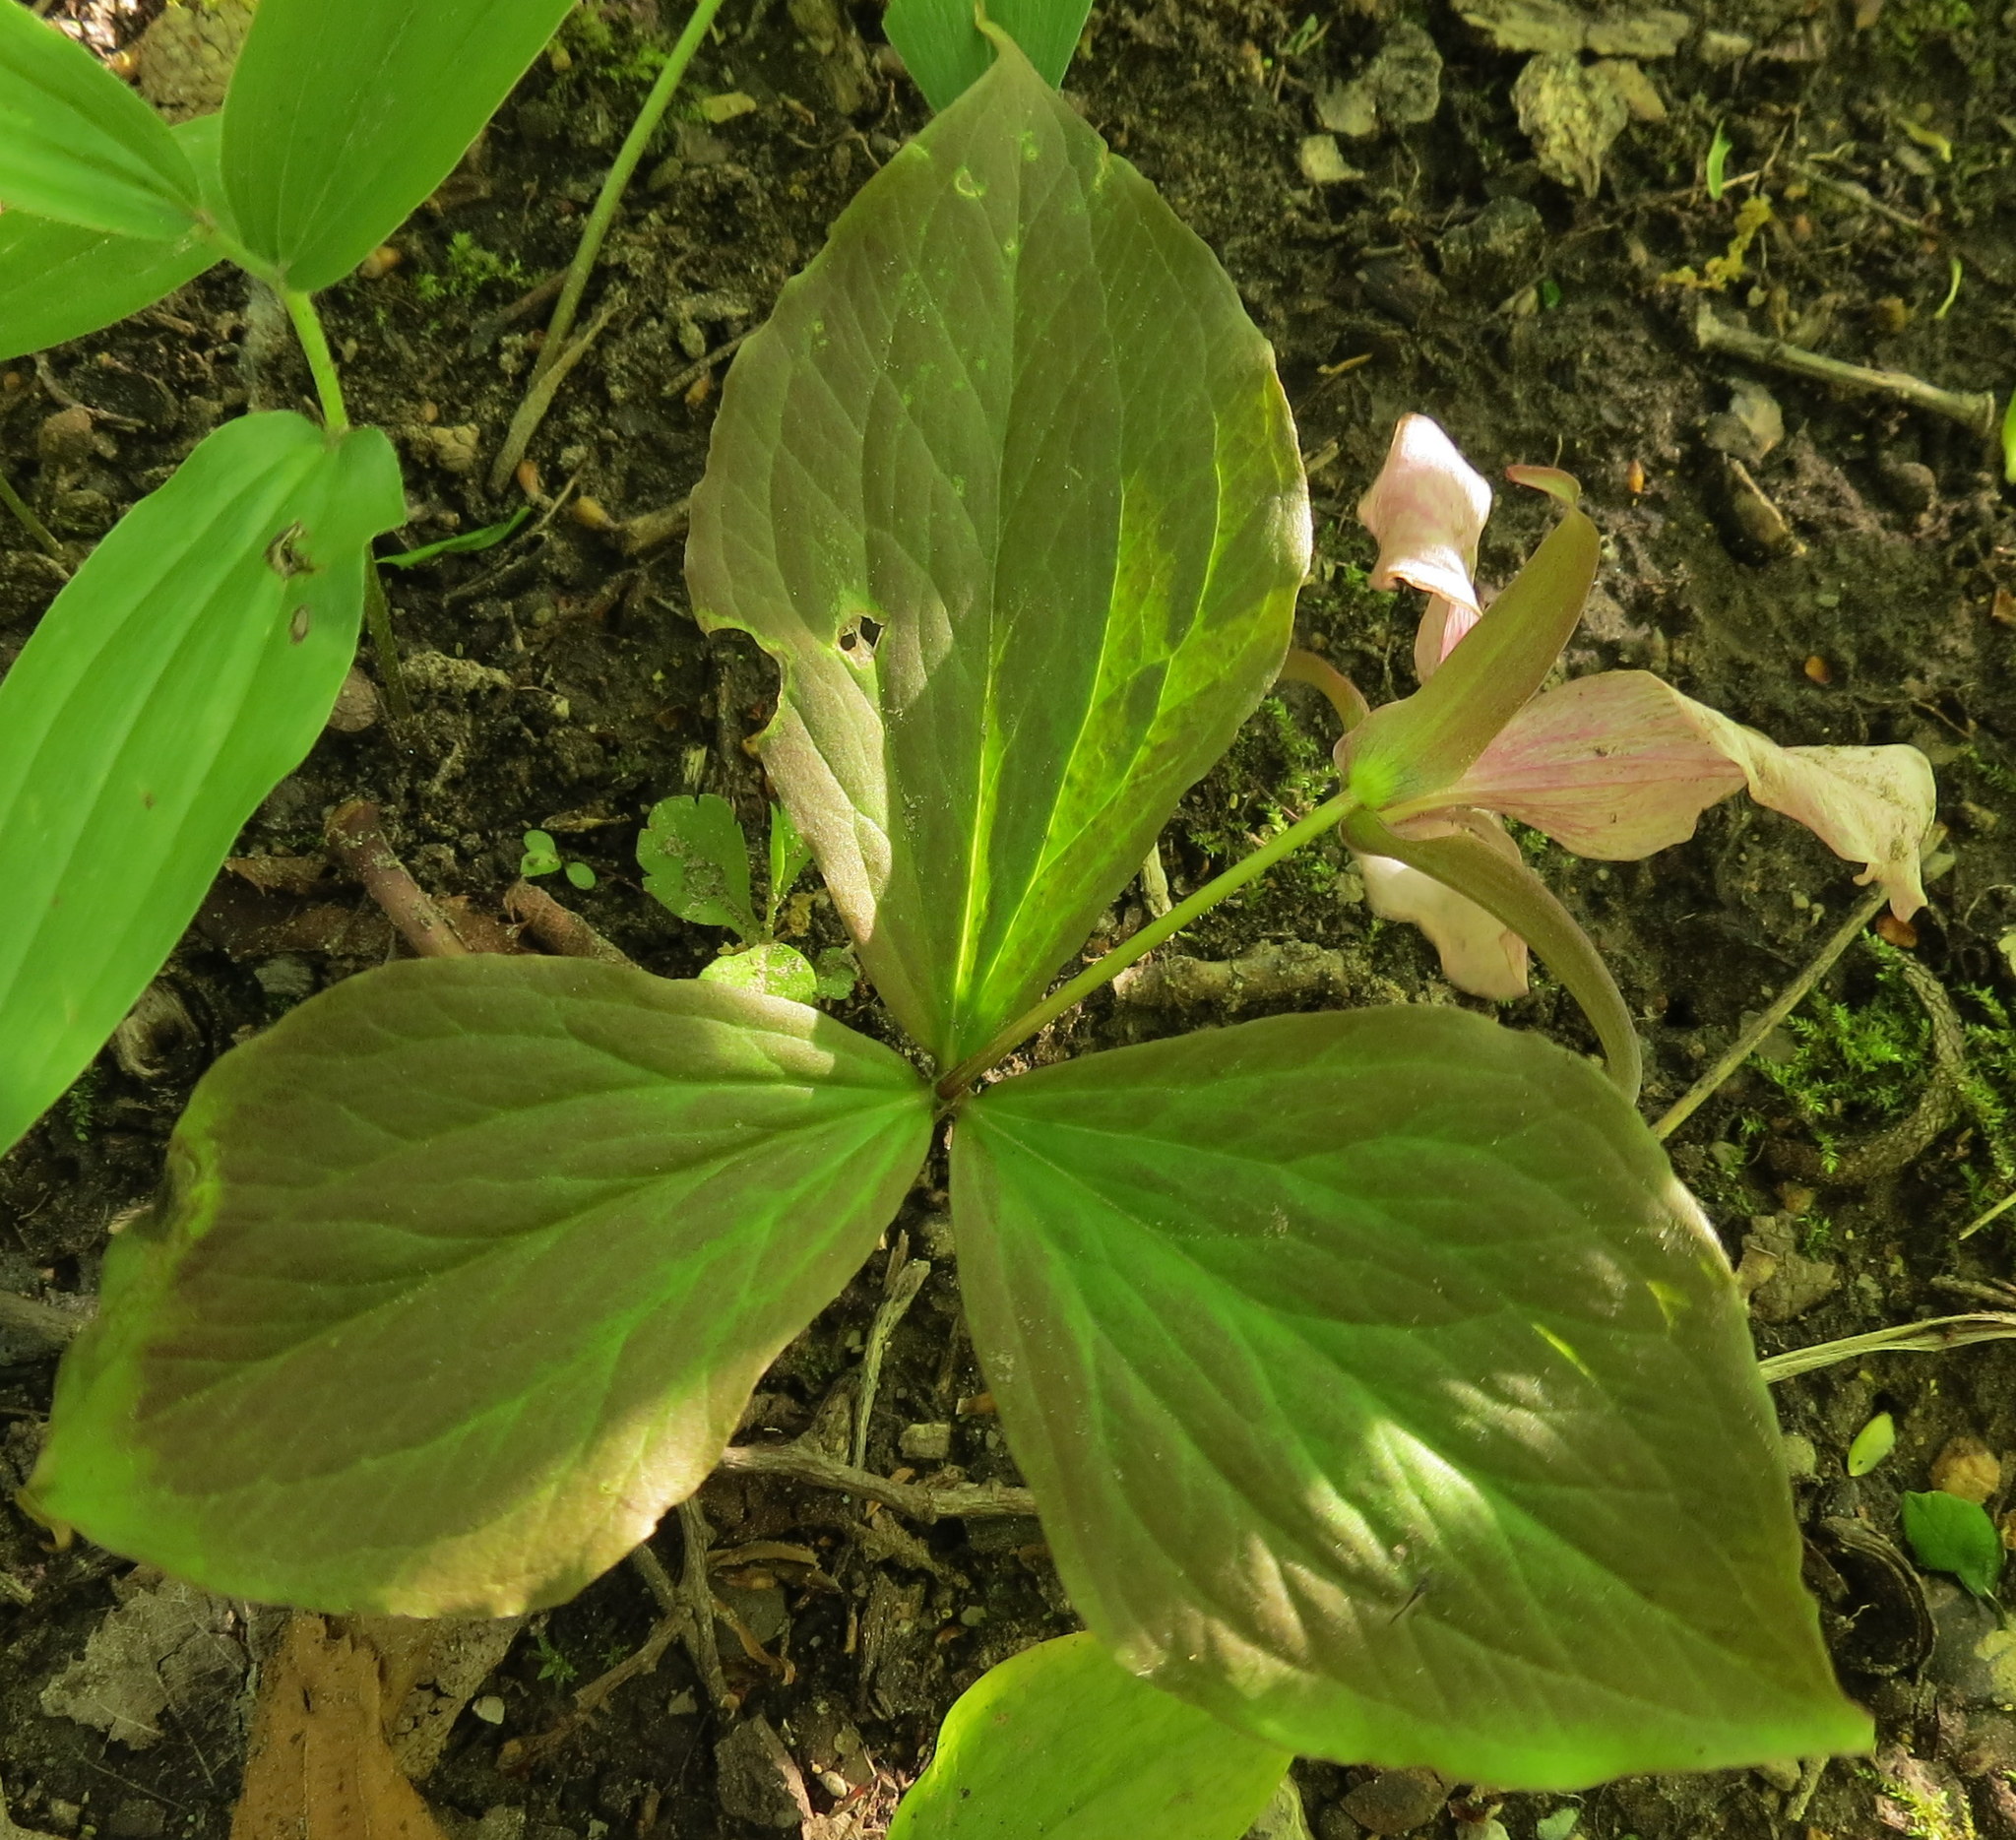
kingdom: Plantae
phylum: Tracheophyta
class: Liliopsida
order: Liliales
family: Melanthiaceae
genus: Trillium
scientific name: Trillium grandiflorum
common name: Great white trillium
